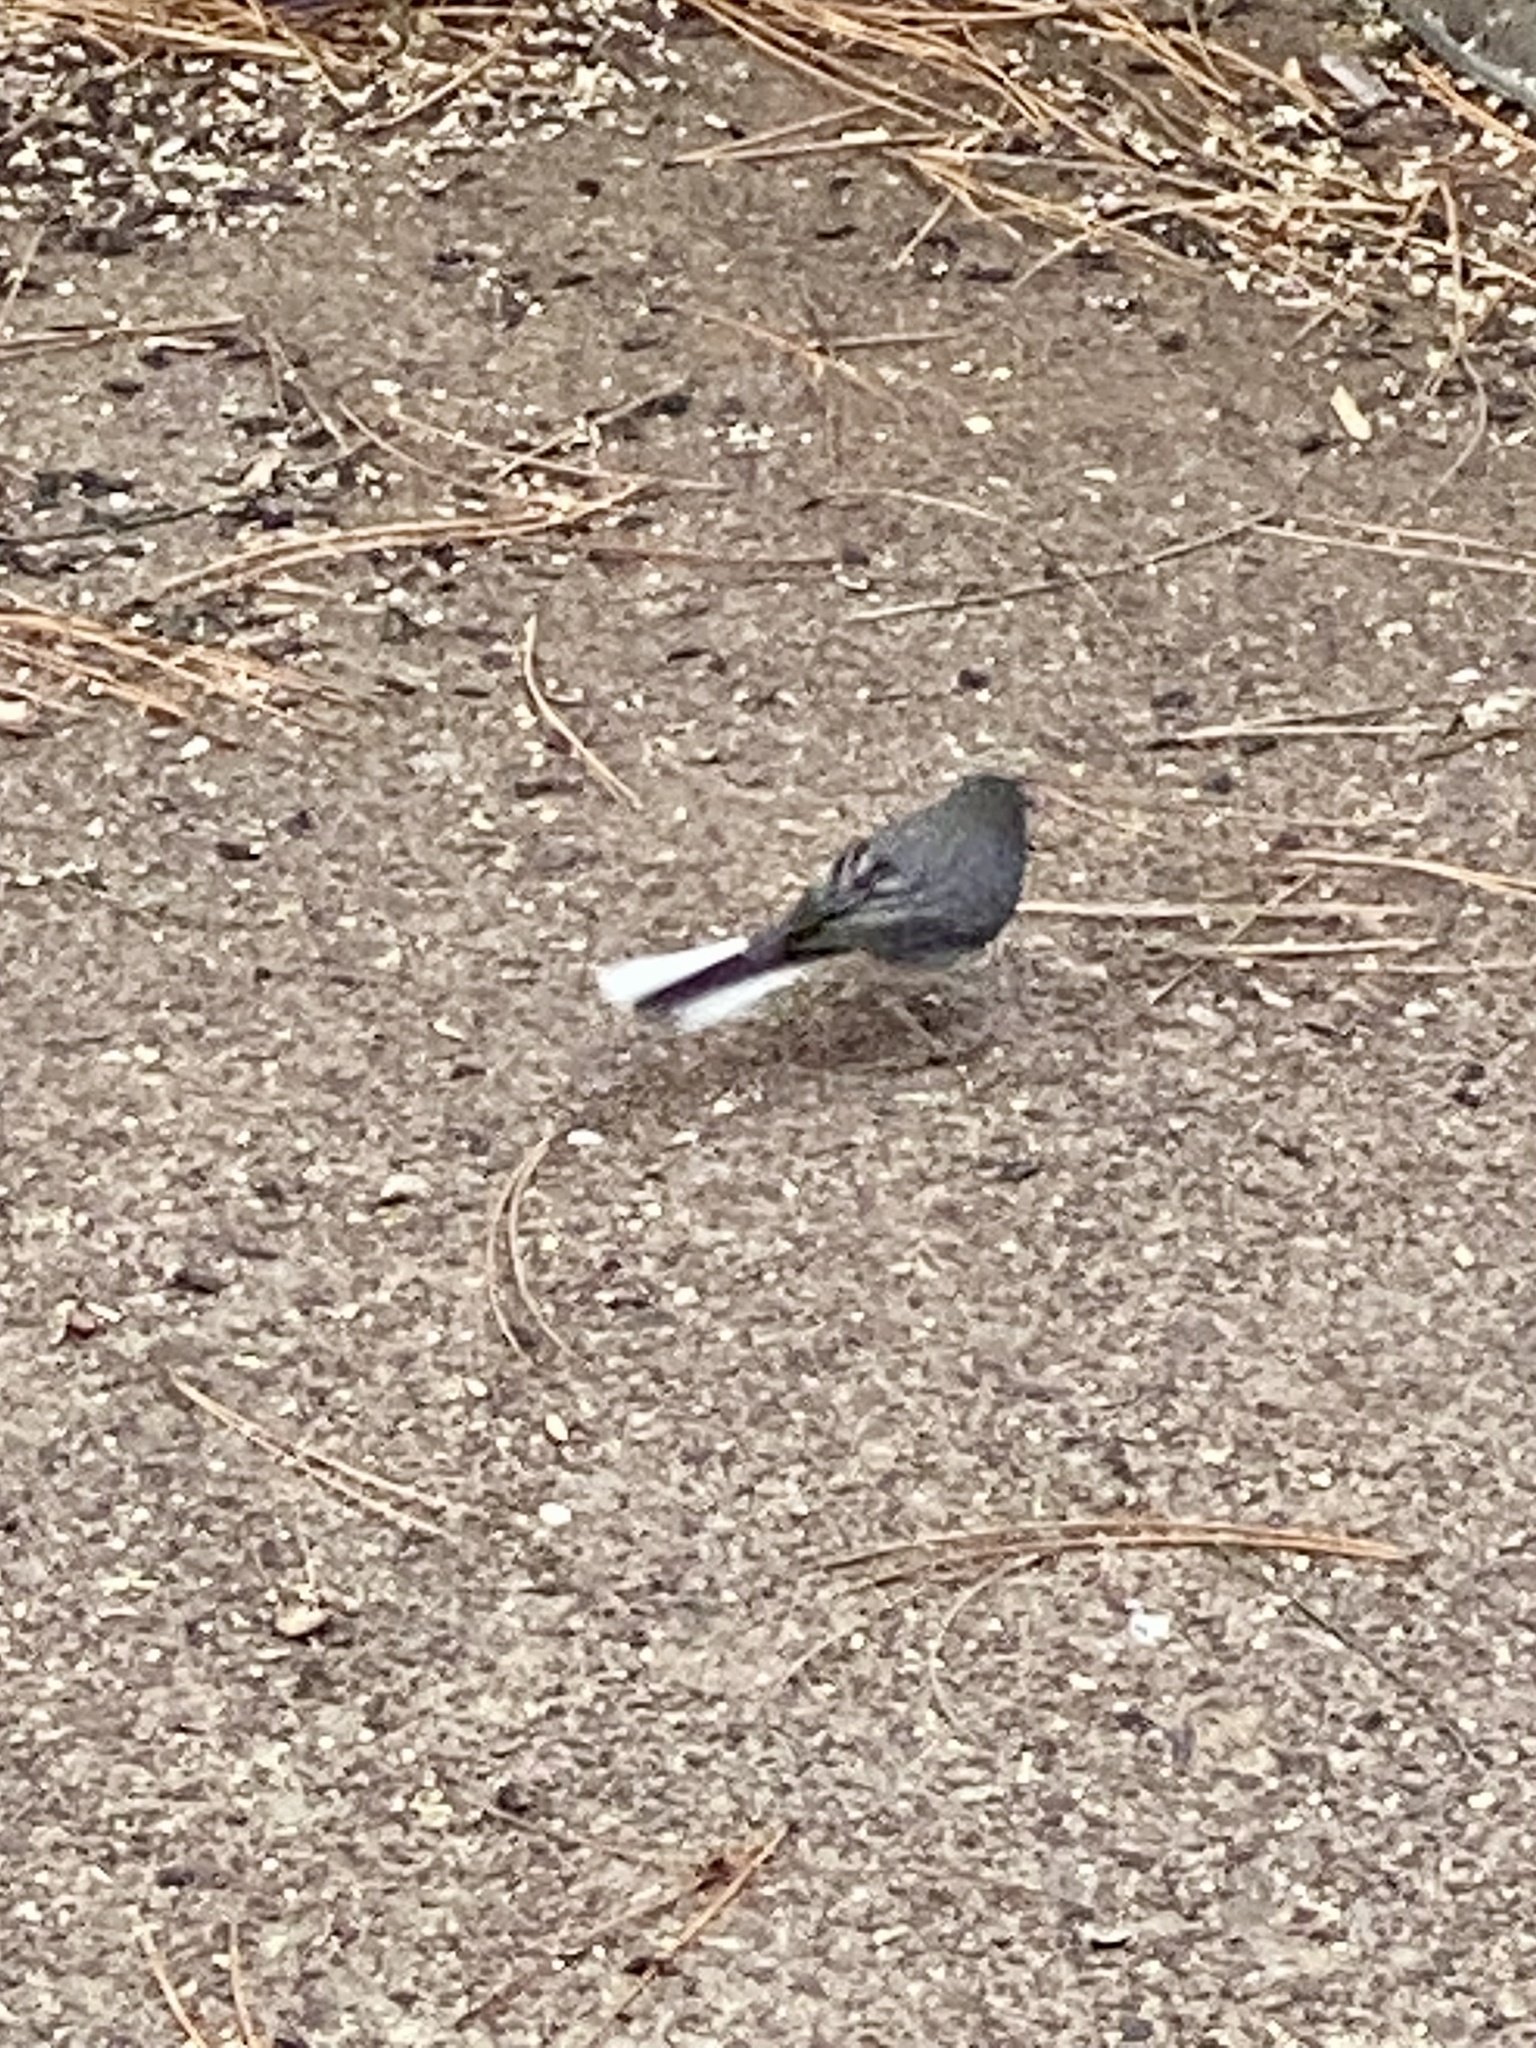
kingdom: Animalia
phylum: Chordata
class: Aves
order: Passeriformes
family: Passerellidae
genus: Junco
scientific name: Junco hyemalis
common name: Dark-eyed junco
